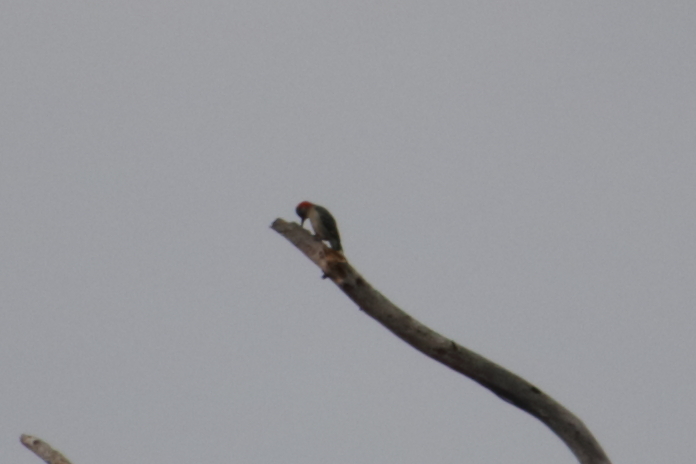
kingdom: Animalia
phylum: Chordata
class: Aves
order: Piciformes
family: Picidae
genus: Melanerpes
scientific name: Melanerpes carolinus
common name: Red-bellied woodpecker
